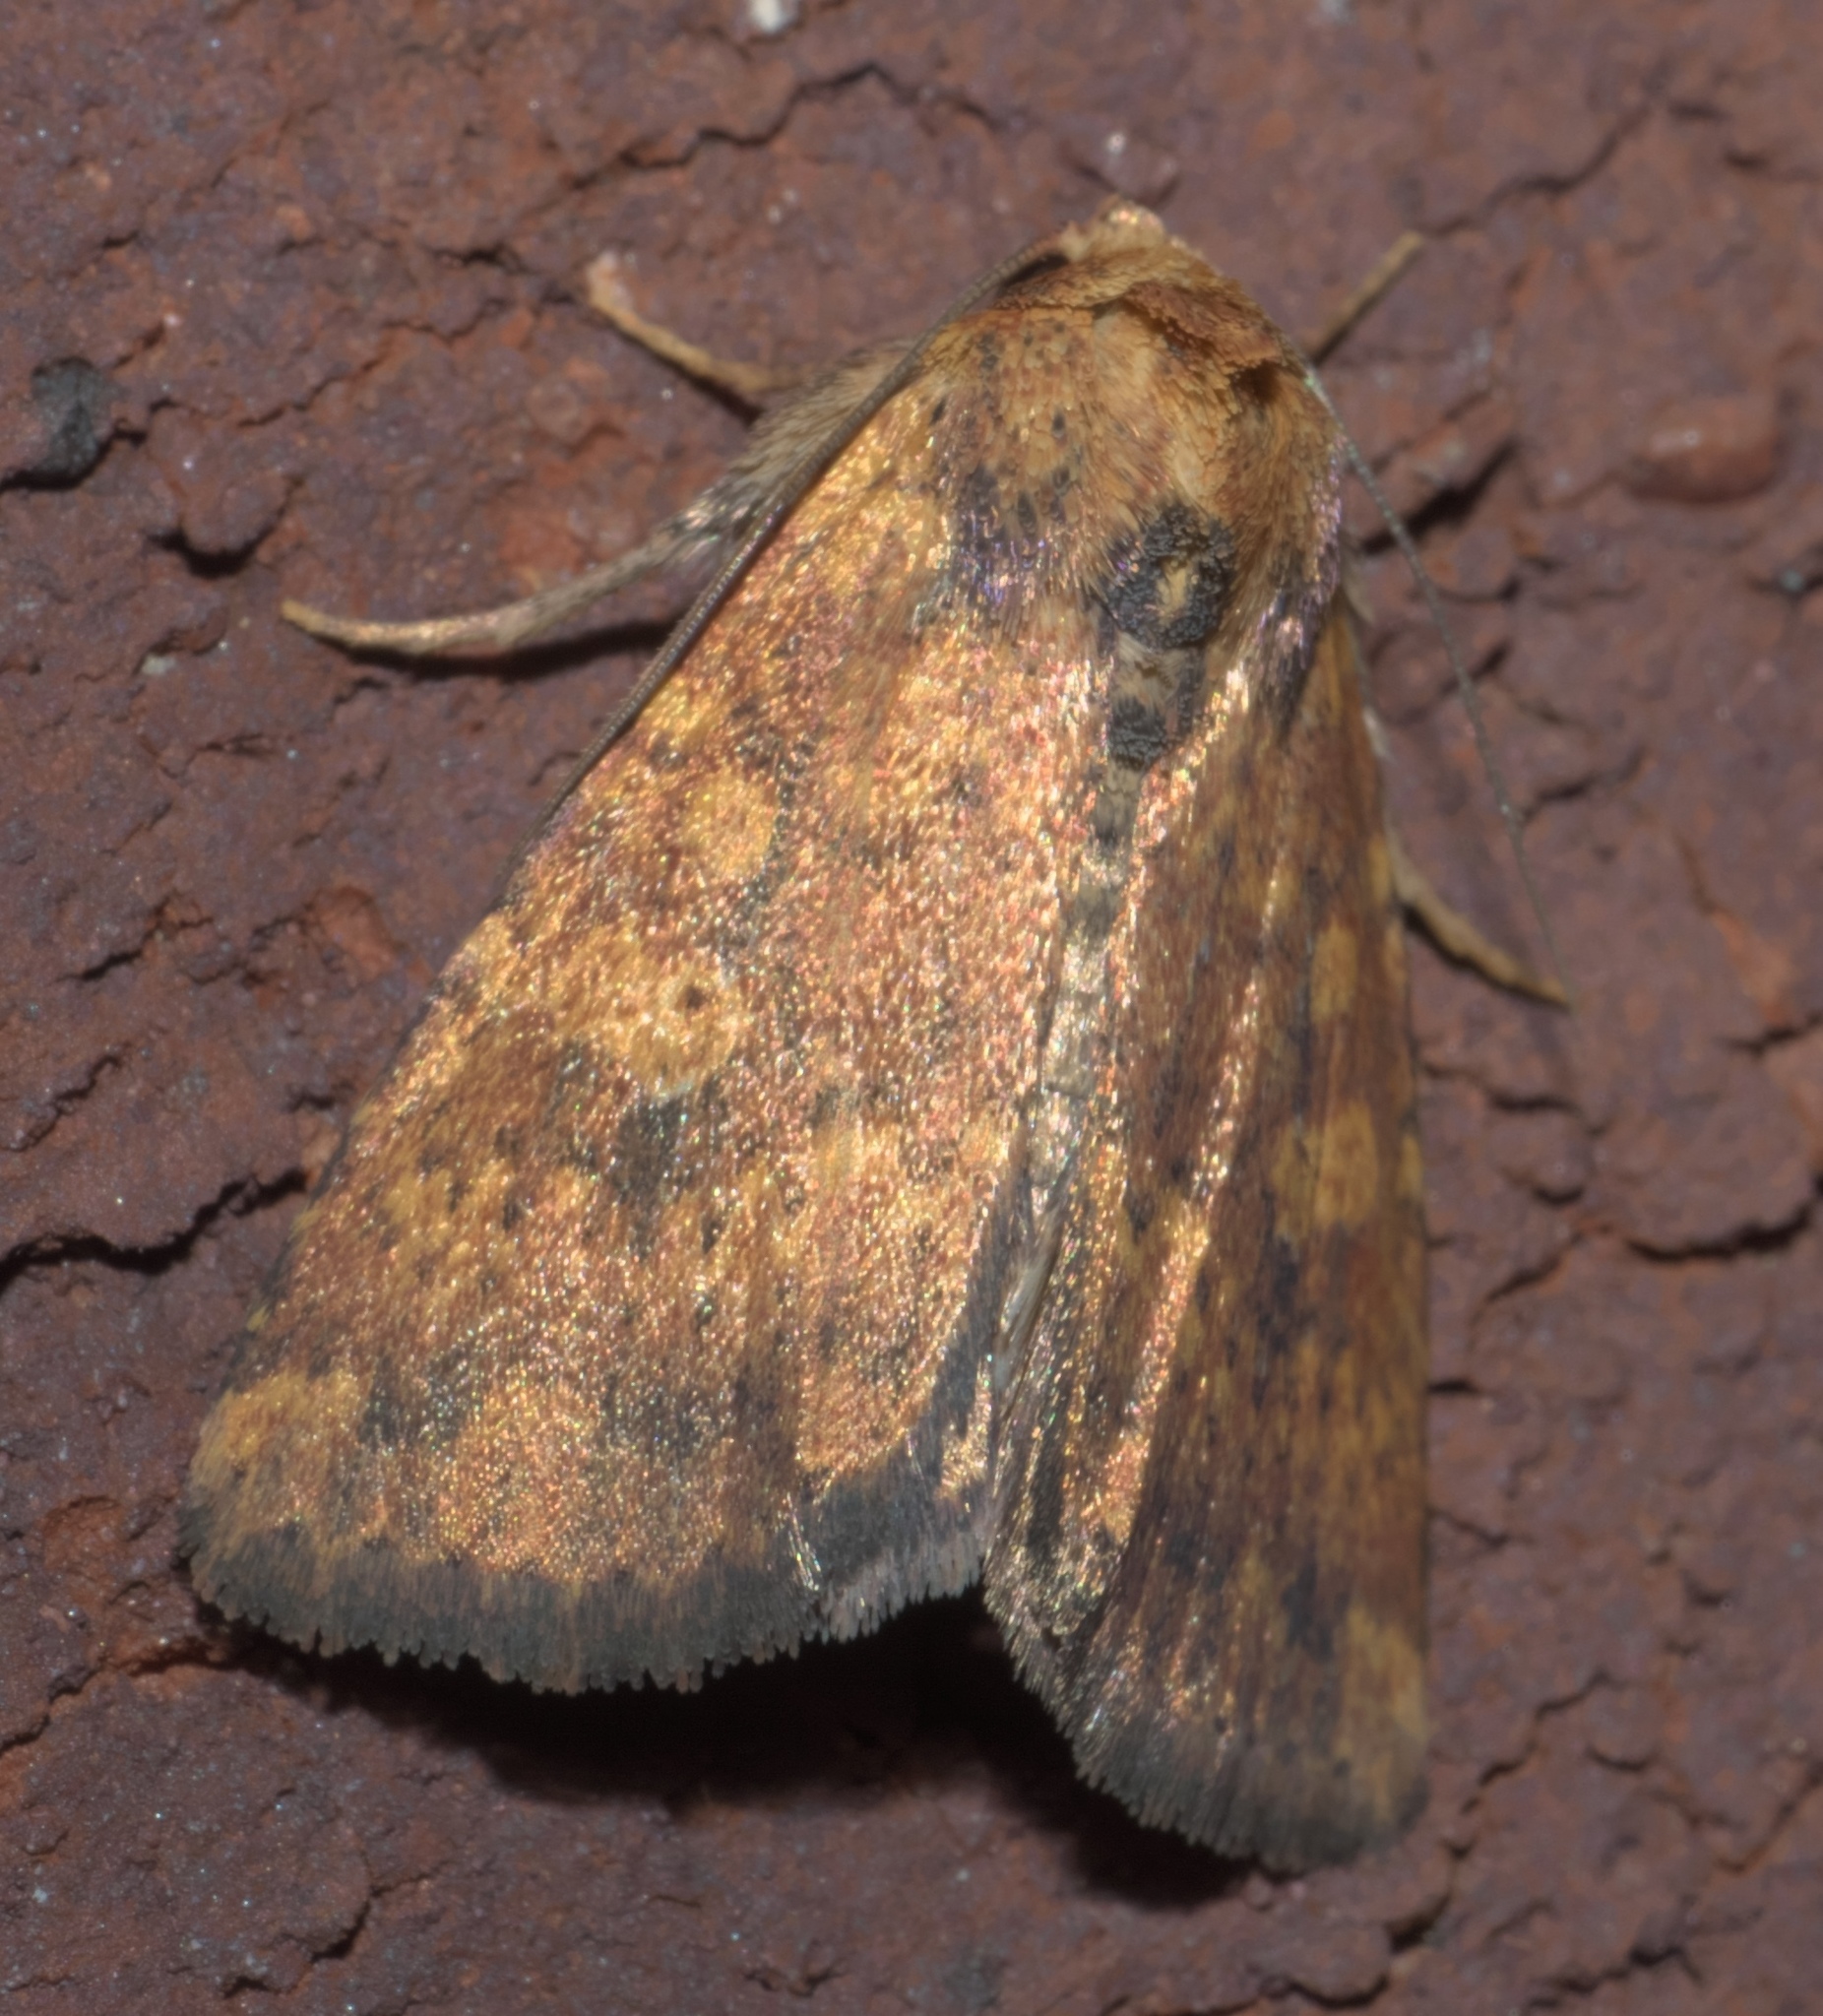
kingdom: Animalia
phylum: Arthropoda
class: Insecta
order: Lepidoptera
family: Noctuidae
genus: Perigea
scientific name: Perigea xanthioides
